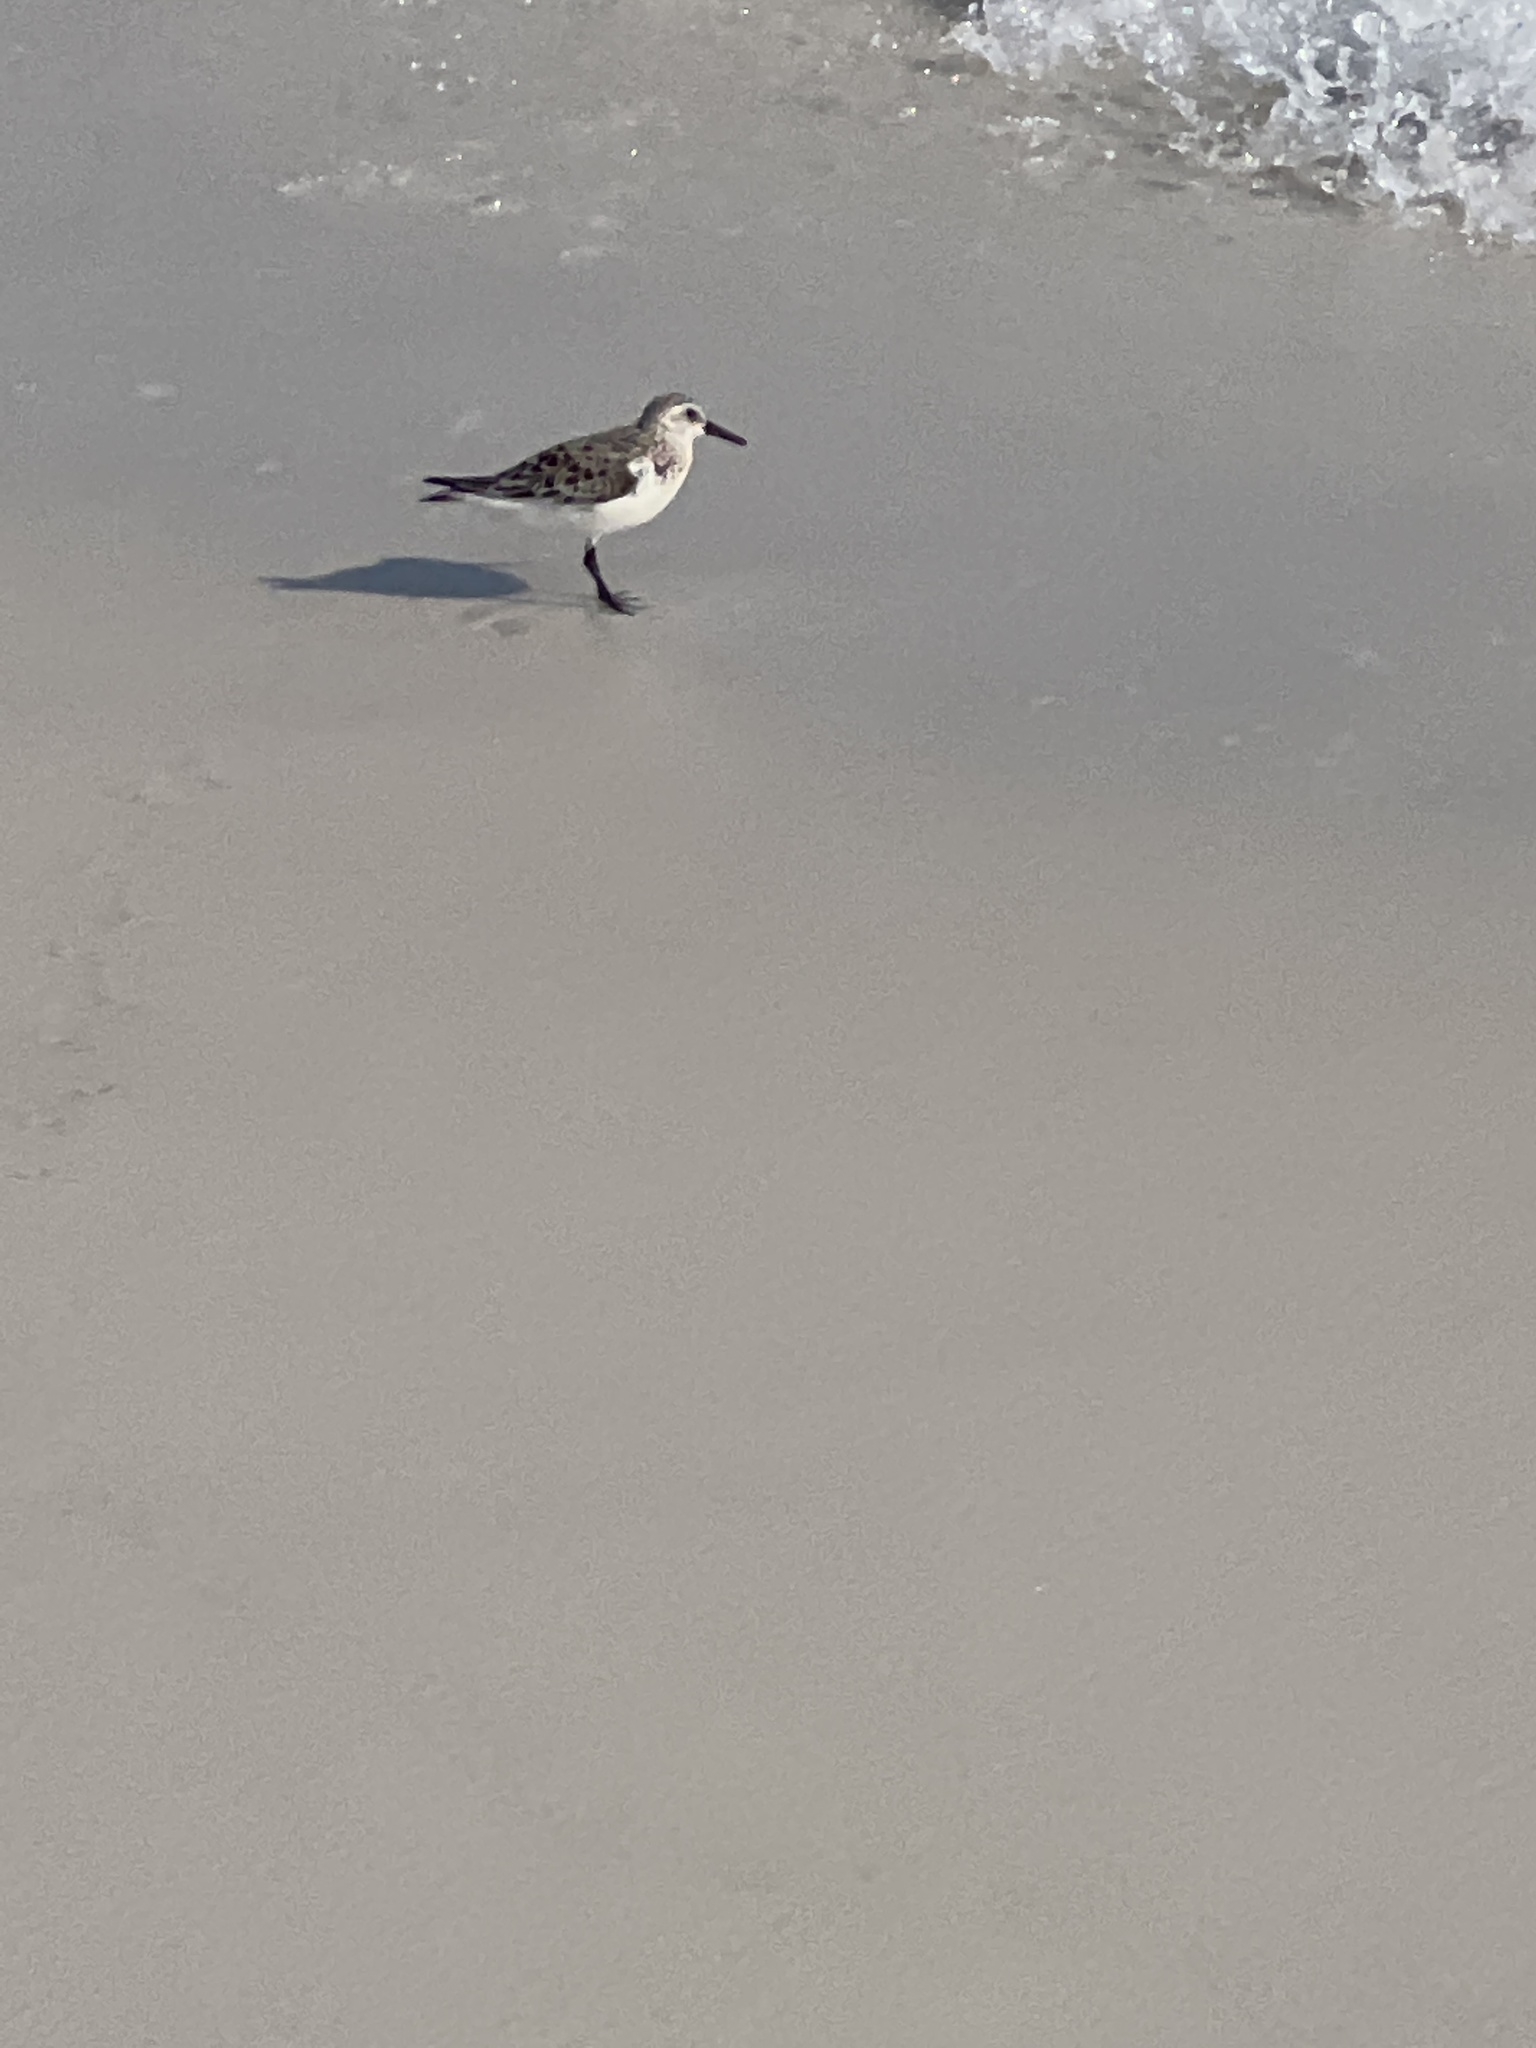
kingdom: Animalia
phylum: Chordata
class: Aves
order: Charadriiformes
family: Scolopacidae
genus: Calidris
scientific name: Calidris alba
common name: Sanderling
